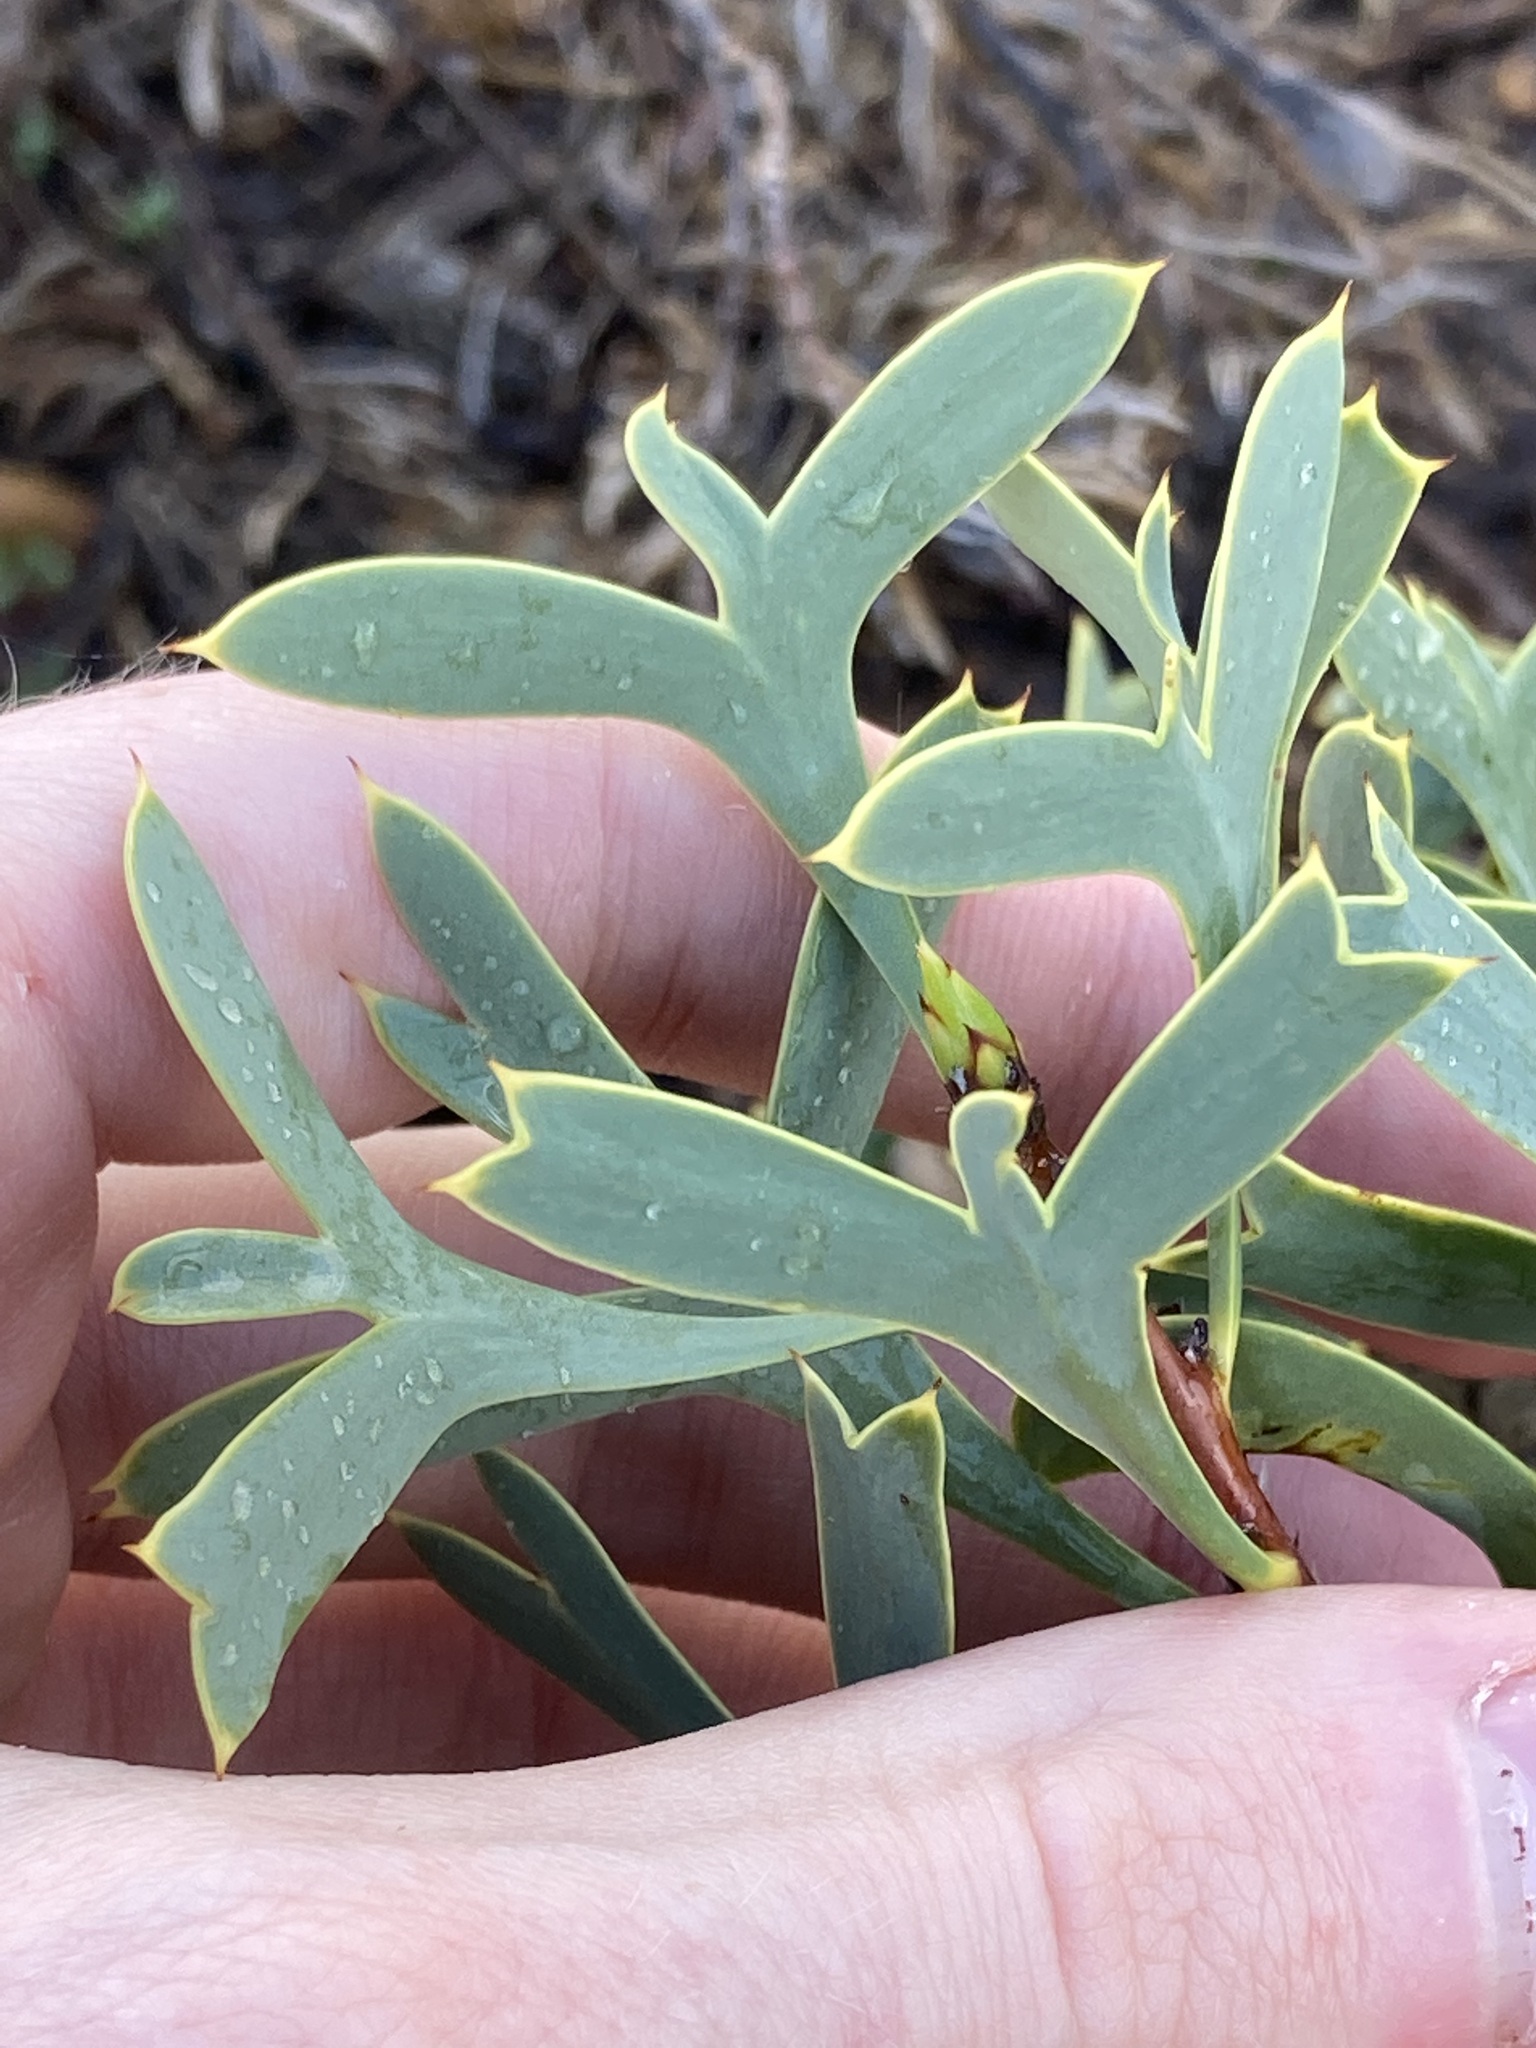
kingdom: Plantae
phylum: Tracheophyta
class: Magnoliopsida
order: Proteales
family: Proteaceae
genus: Petrophile
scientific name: Petrophile shuttleworthiana
